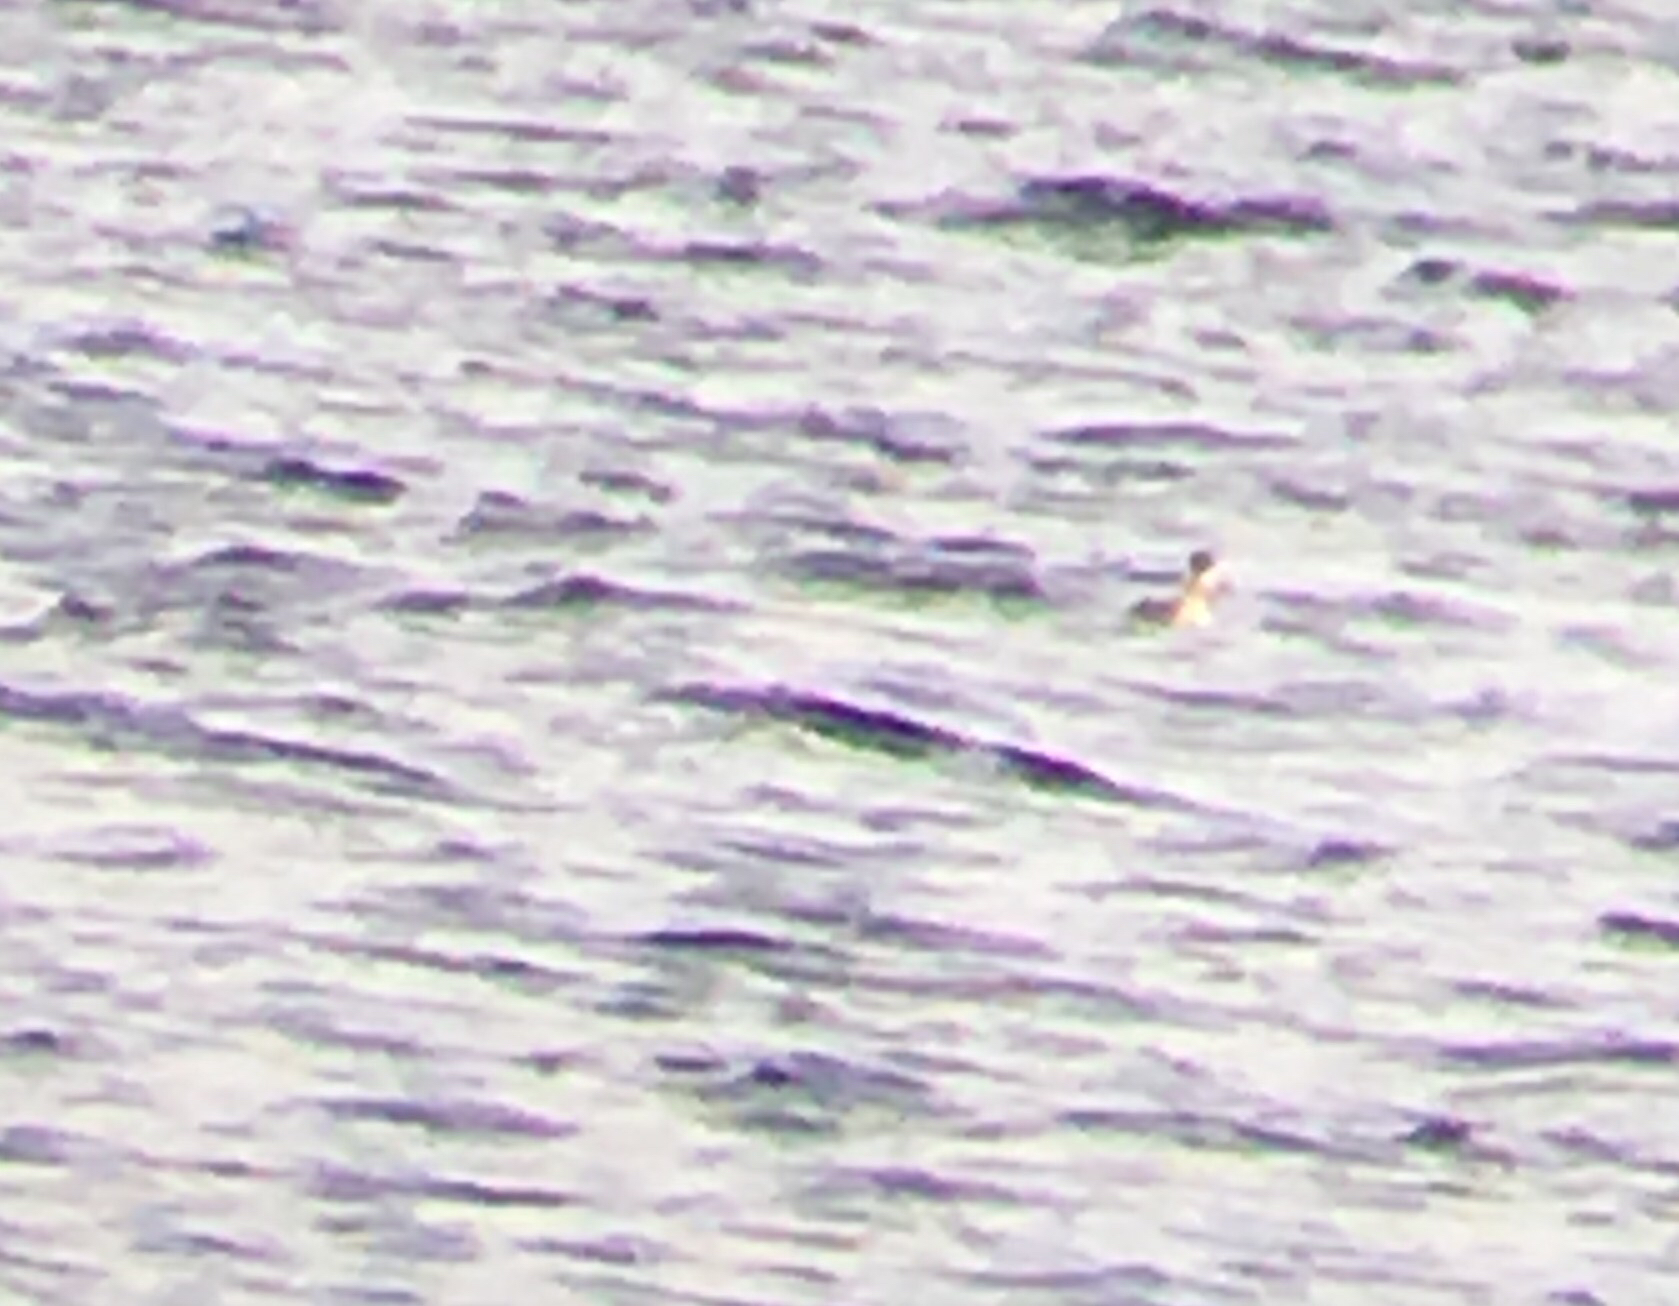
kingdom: Animalia
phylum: Chordata
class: Aves
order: Podicipediformes
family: Podicipedidae
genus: Podiceps
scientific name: Podiceps auritus
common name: Horned grebe
